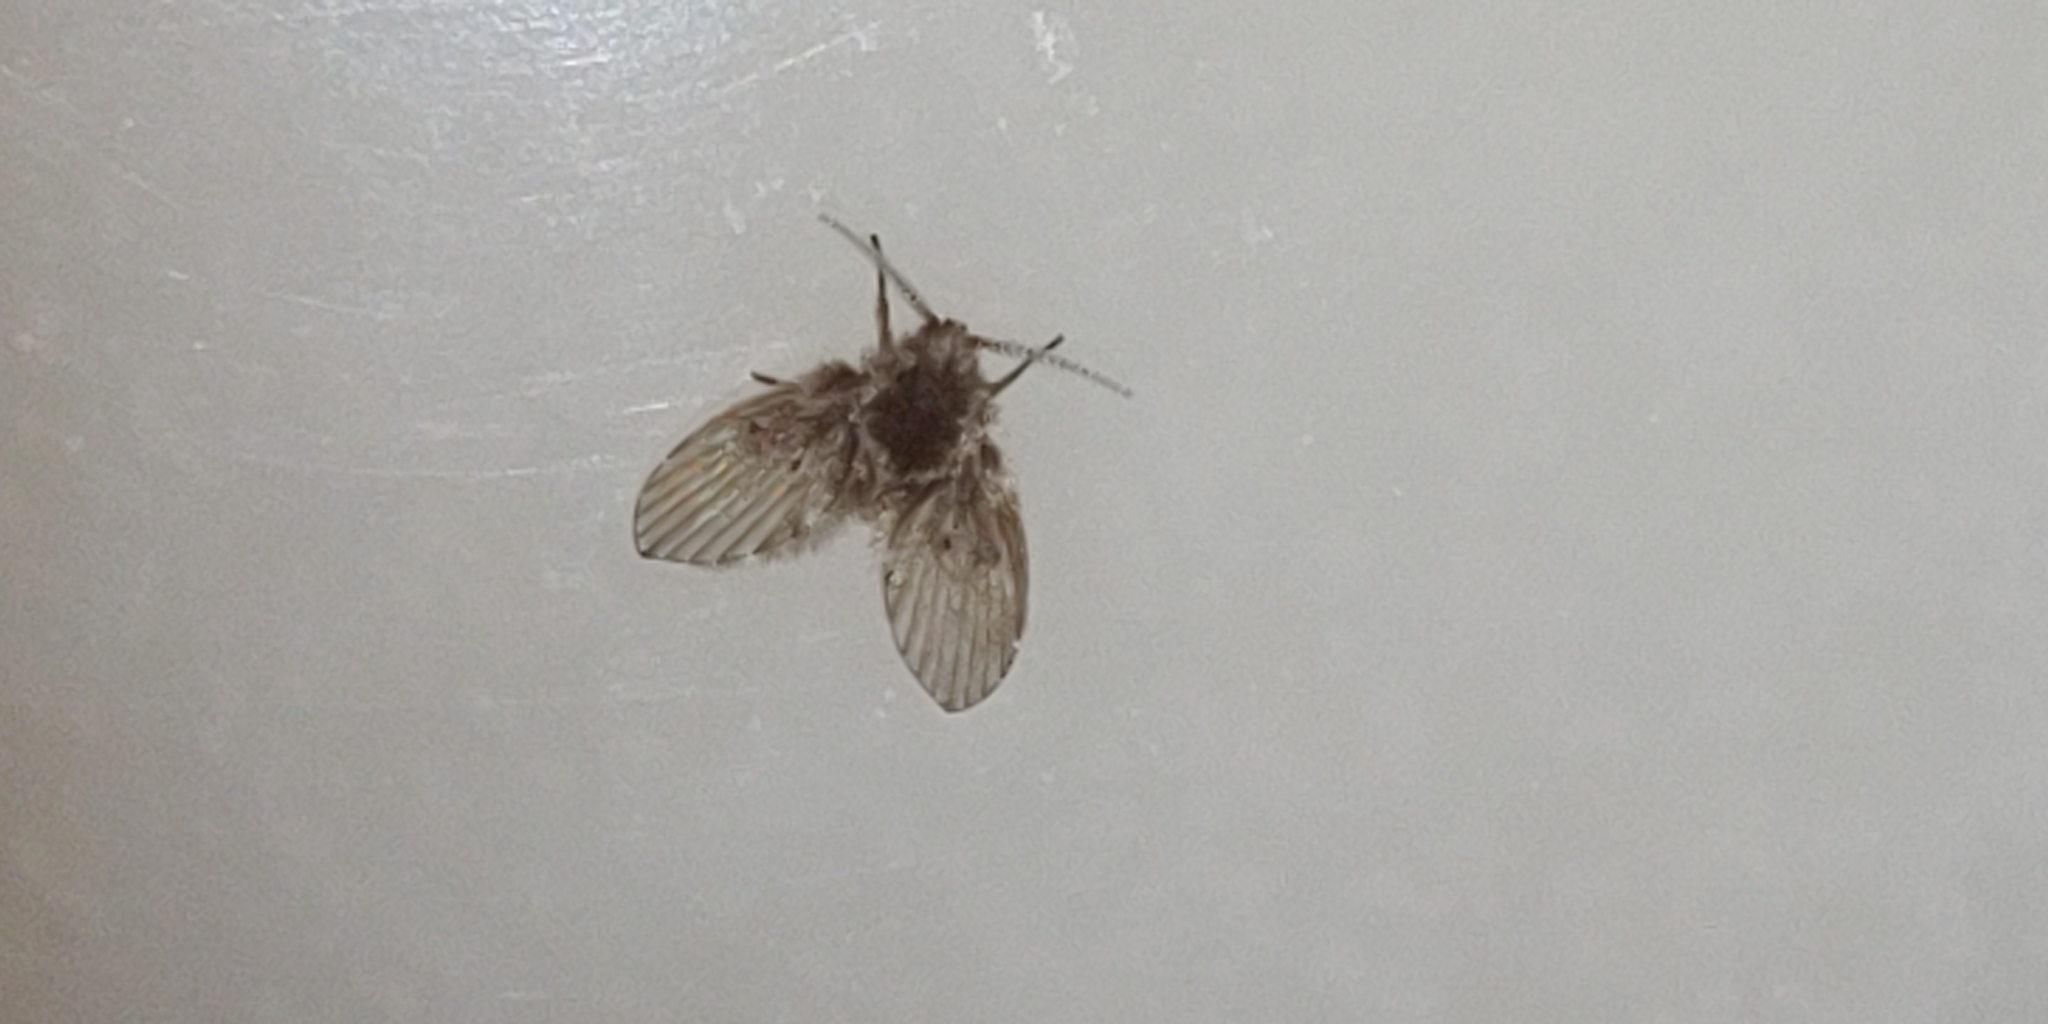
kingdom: Animalia
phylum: Arthropoda
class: Insecta
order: Diptera
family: Psychodidae
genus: Clogmia
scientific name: Clogmia albipunctatus
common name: White-spotted moth fly
